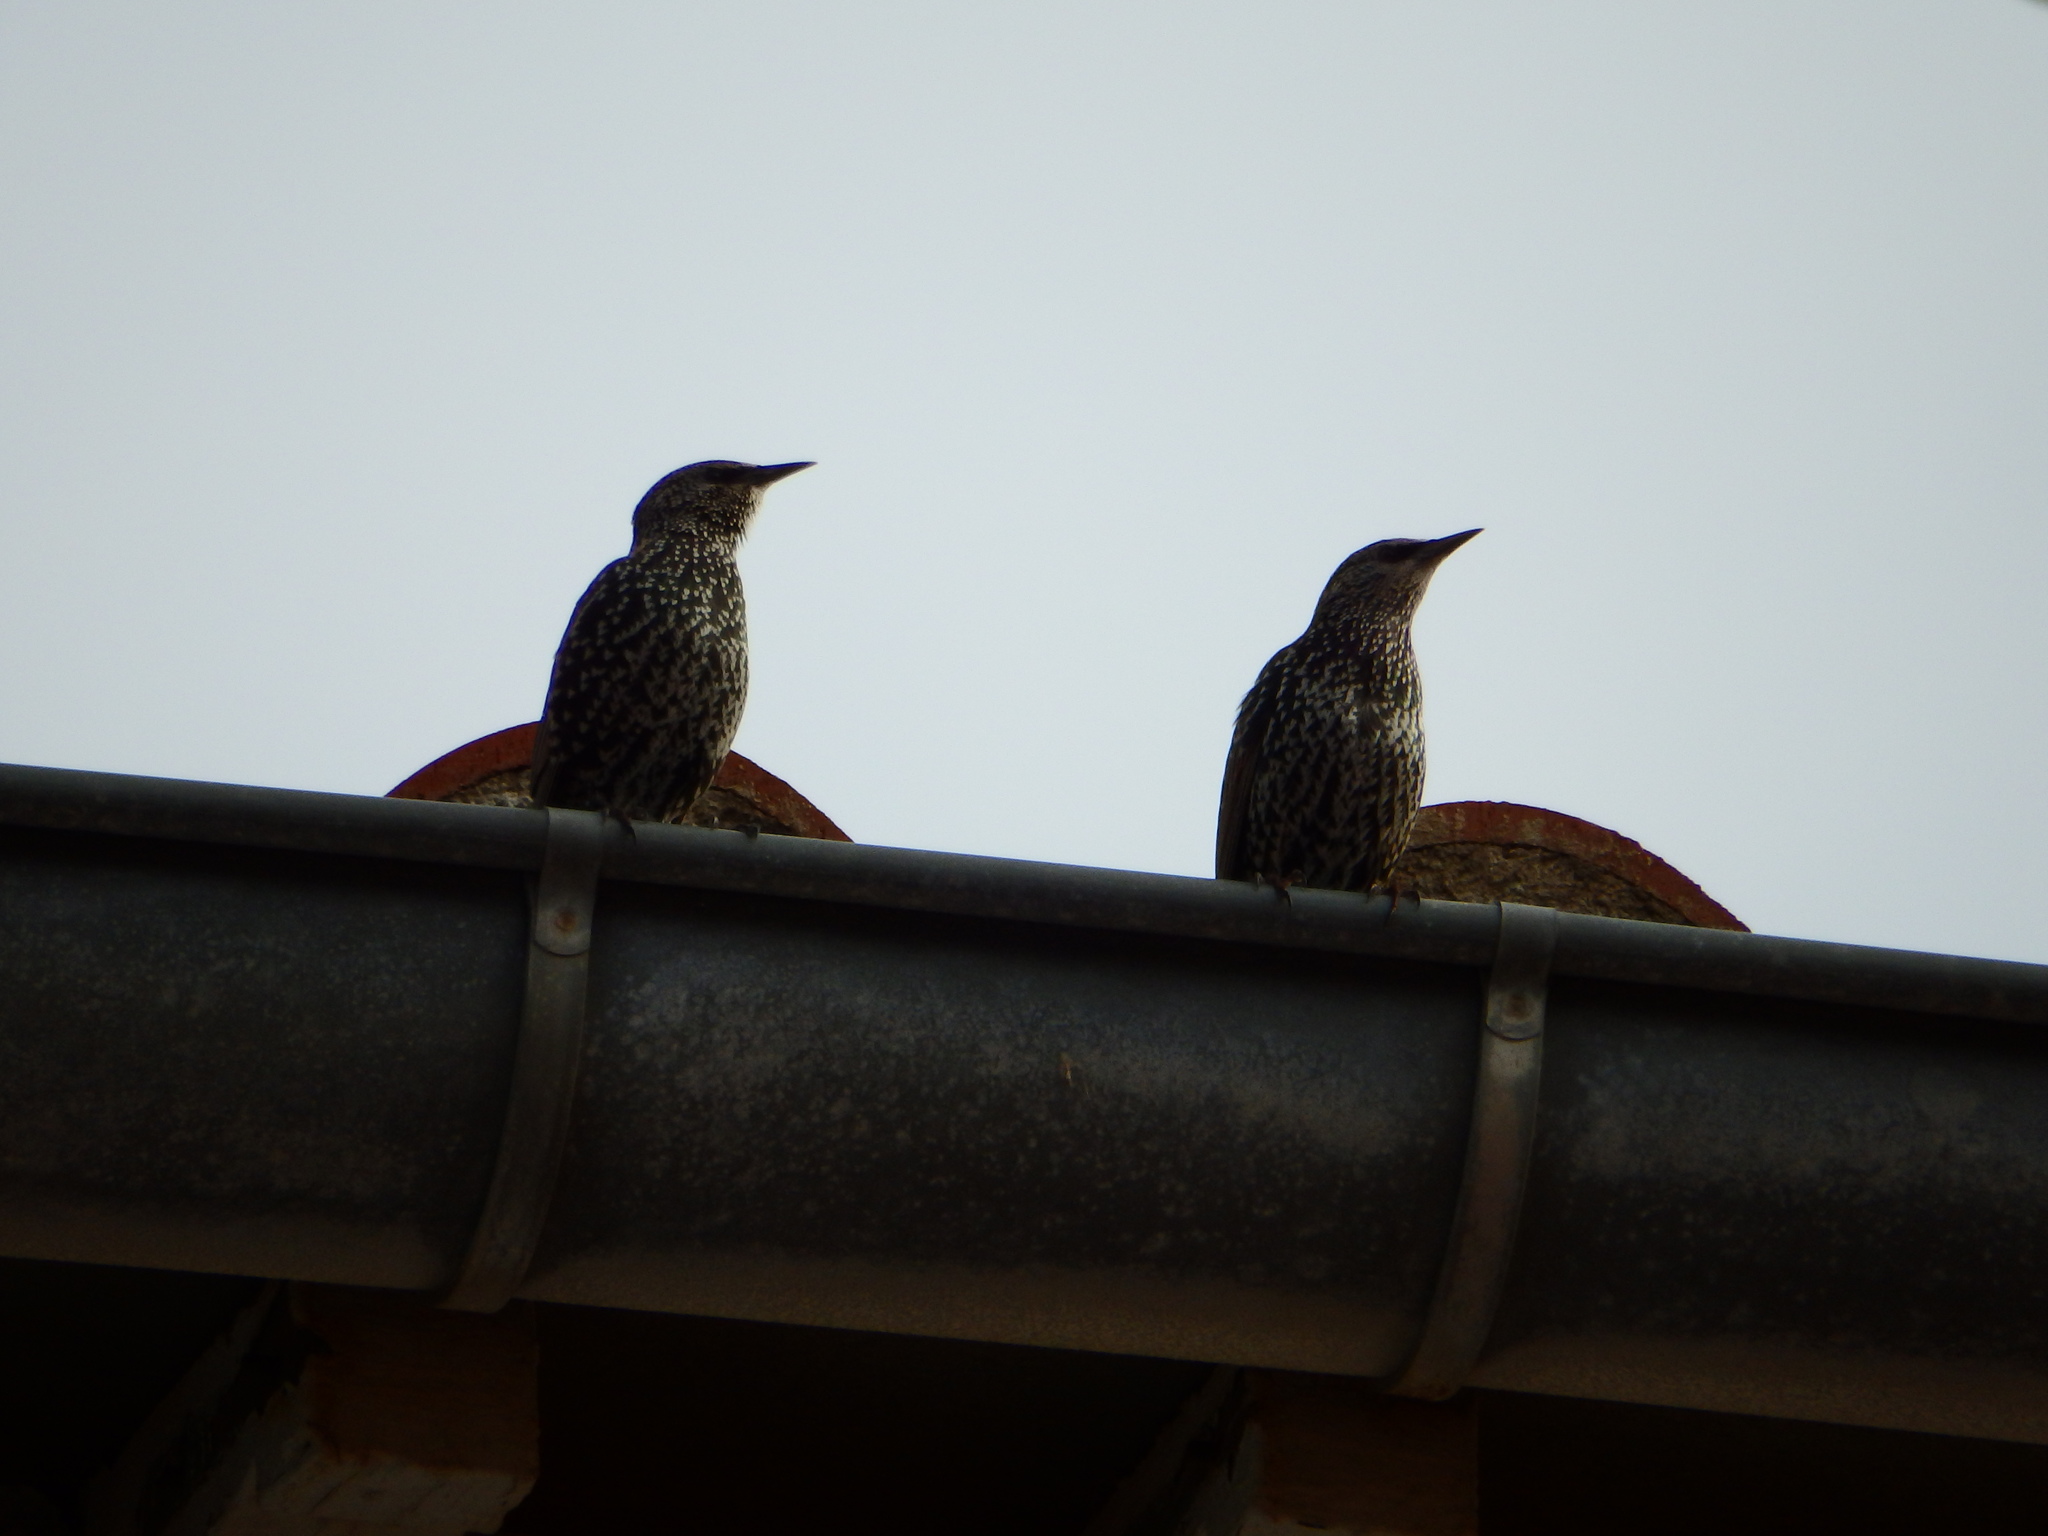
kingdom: Animalia
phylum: Chordata
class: Aves
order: Passeriformes
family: Sturnidae
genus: Sturnus
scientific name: Sturnus vulgaris
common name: Common starling
